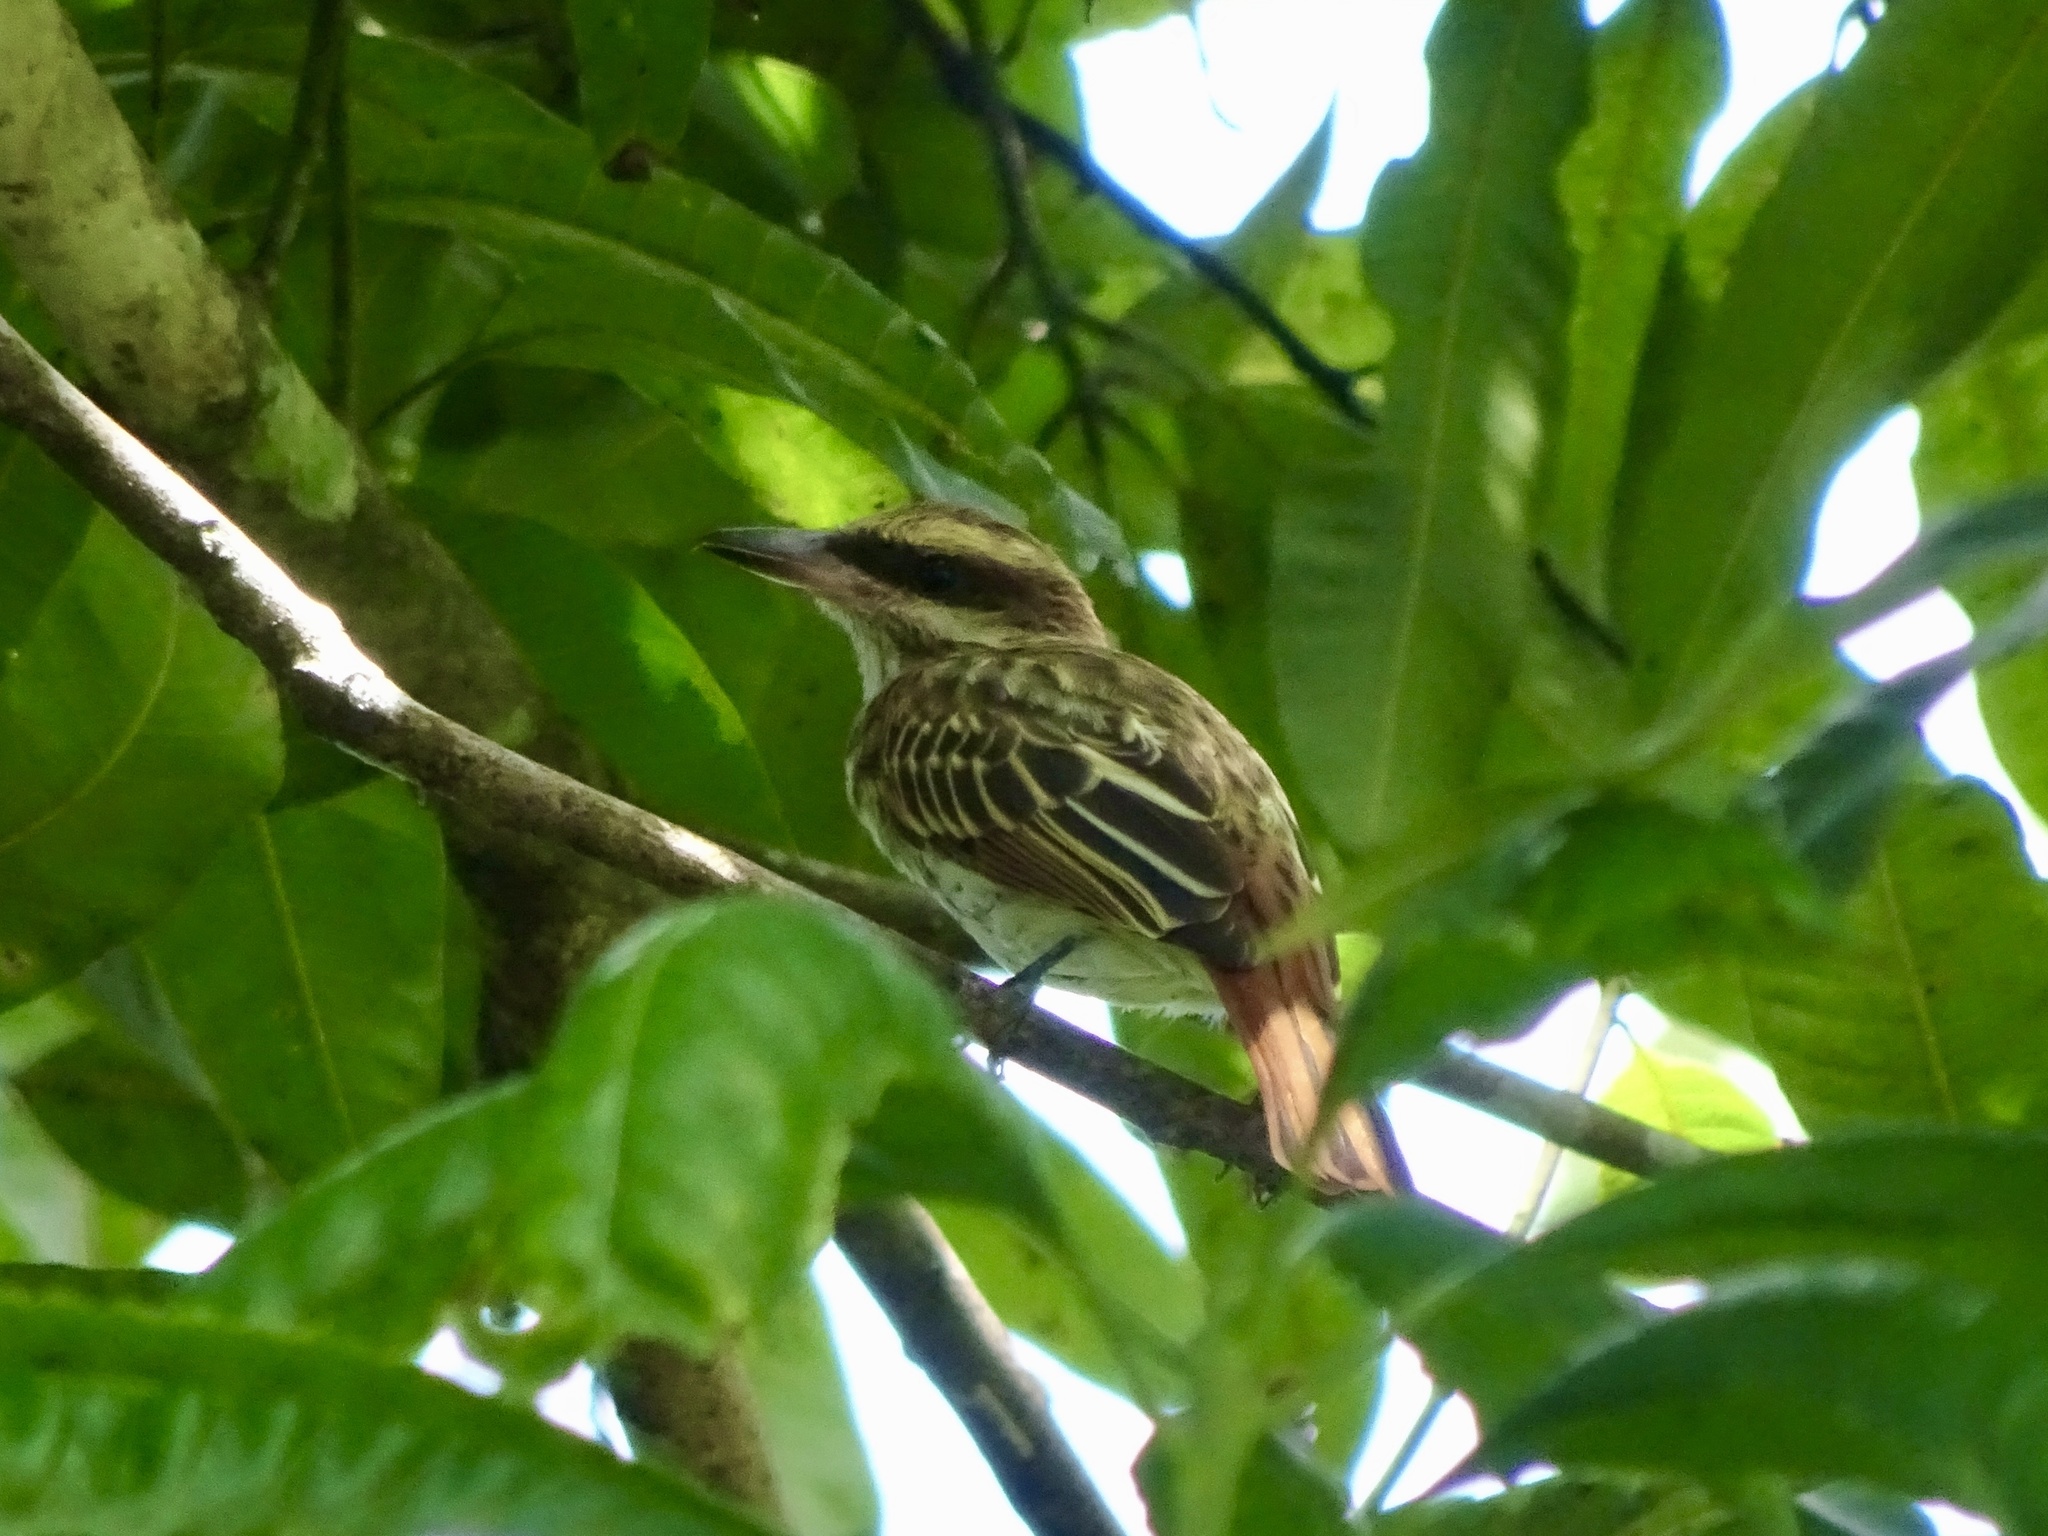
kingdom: Animalia
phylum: Chordata
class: Aves
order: Passeriformes
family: Tyrannidae
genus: Myiodynastes
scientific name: Myiodynastes maculatus
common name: Streaked flycatcher
